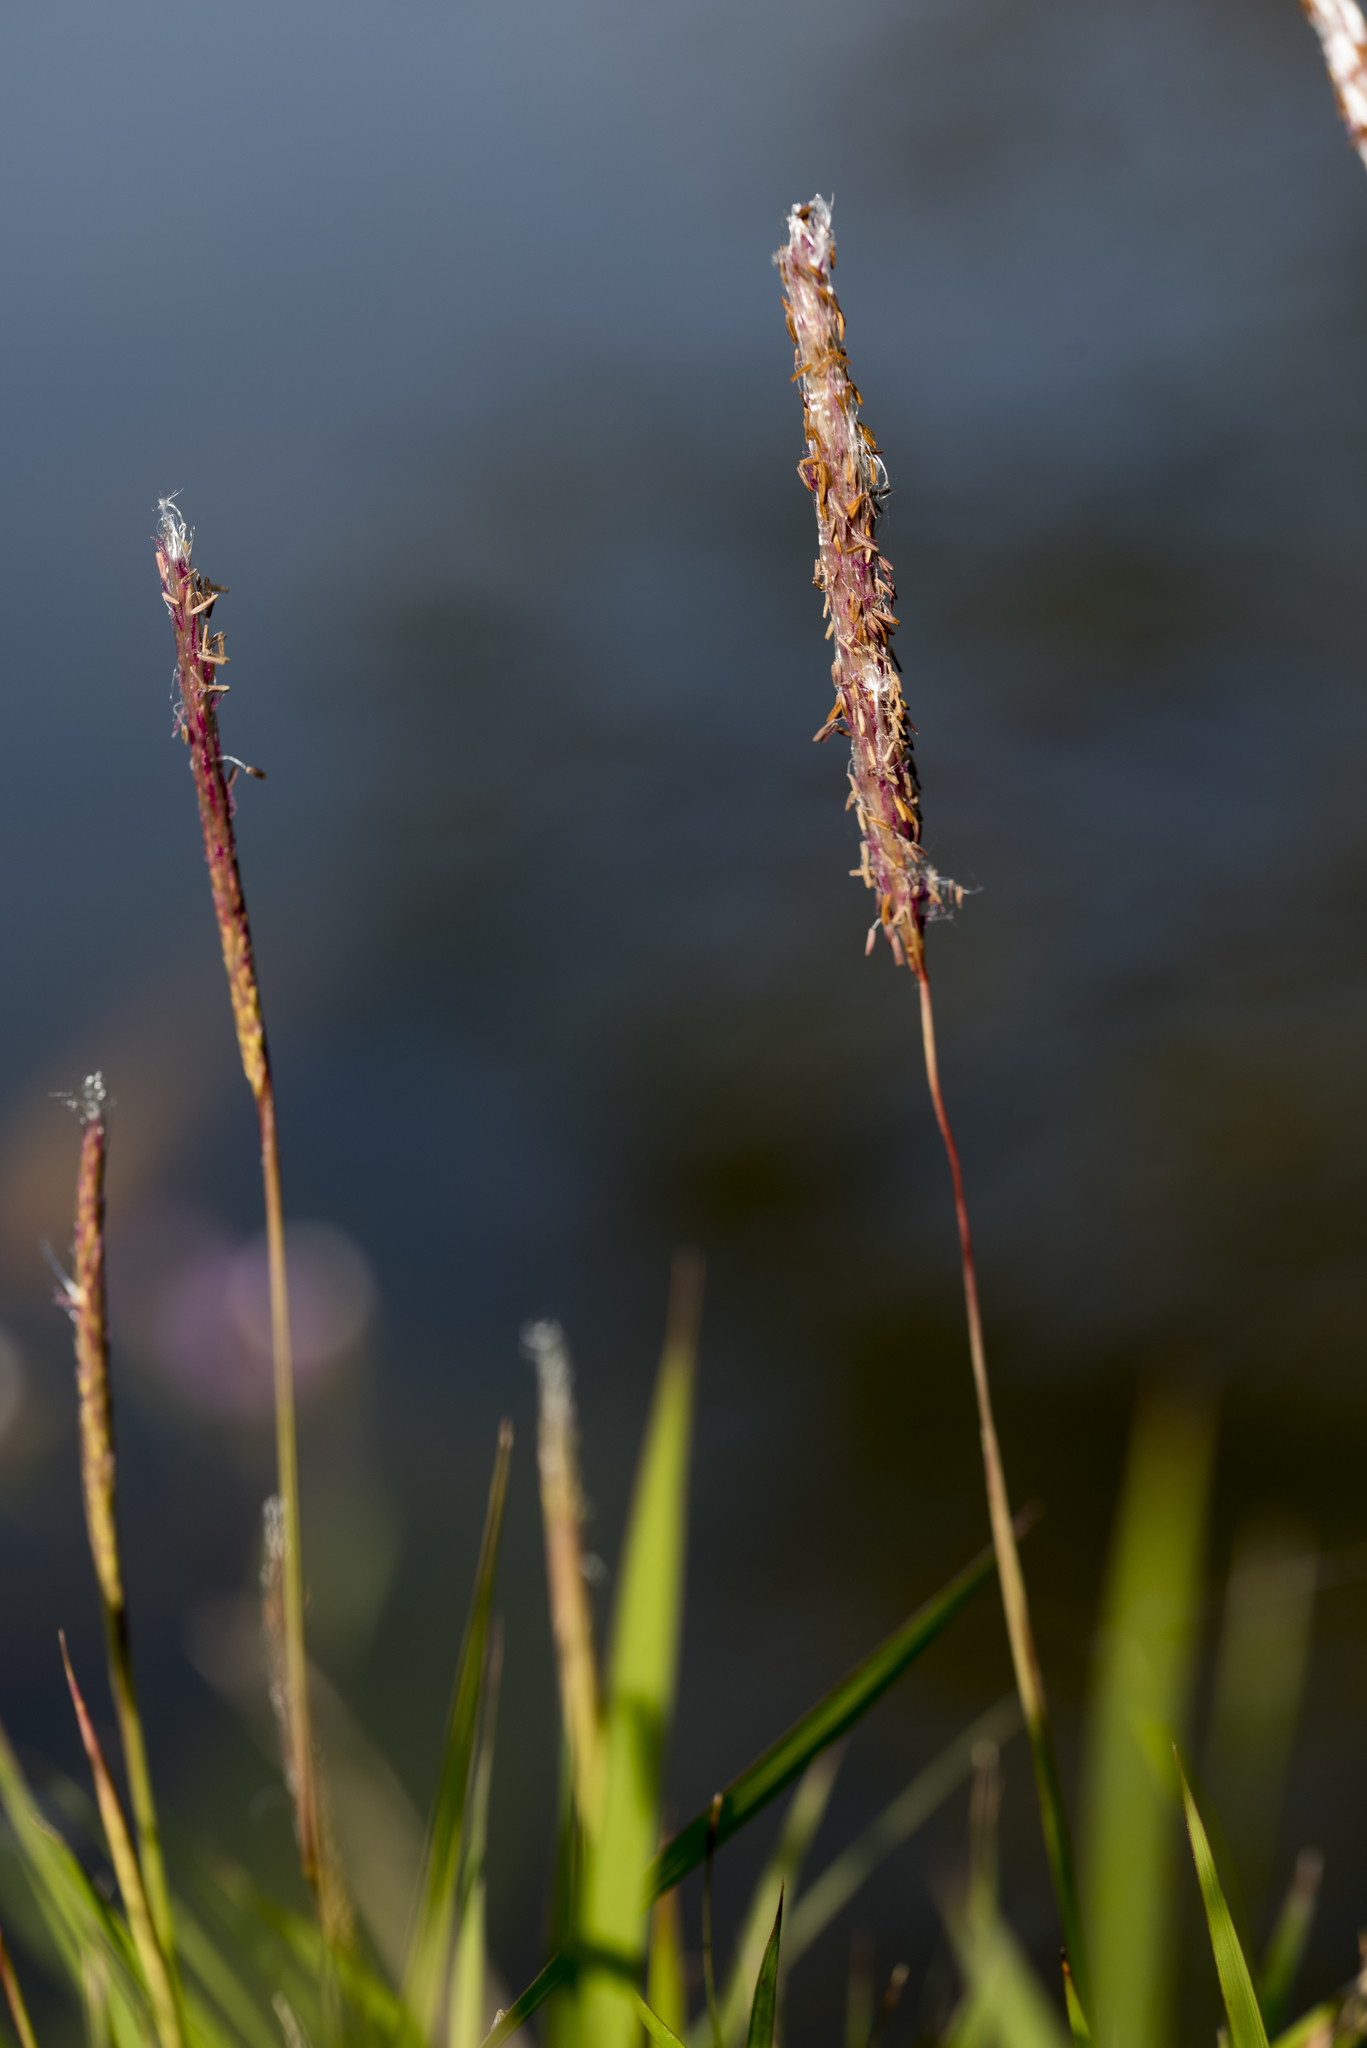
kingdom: Plantae
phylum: Tracheophyta
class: Liliopsida
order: Poales
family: Poaceae
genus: Imperata
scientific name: Imperata cylindrica
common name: Cogongrass
